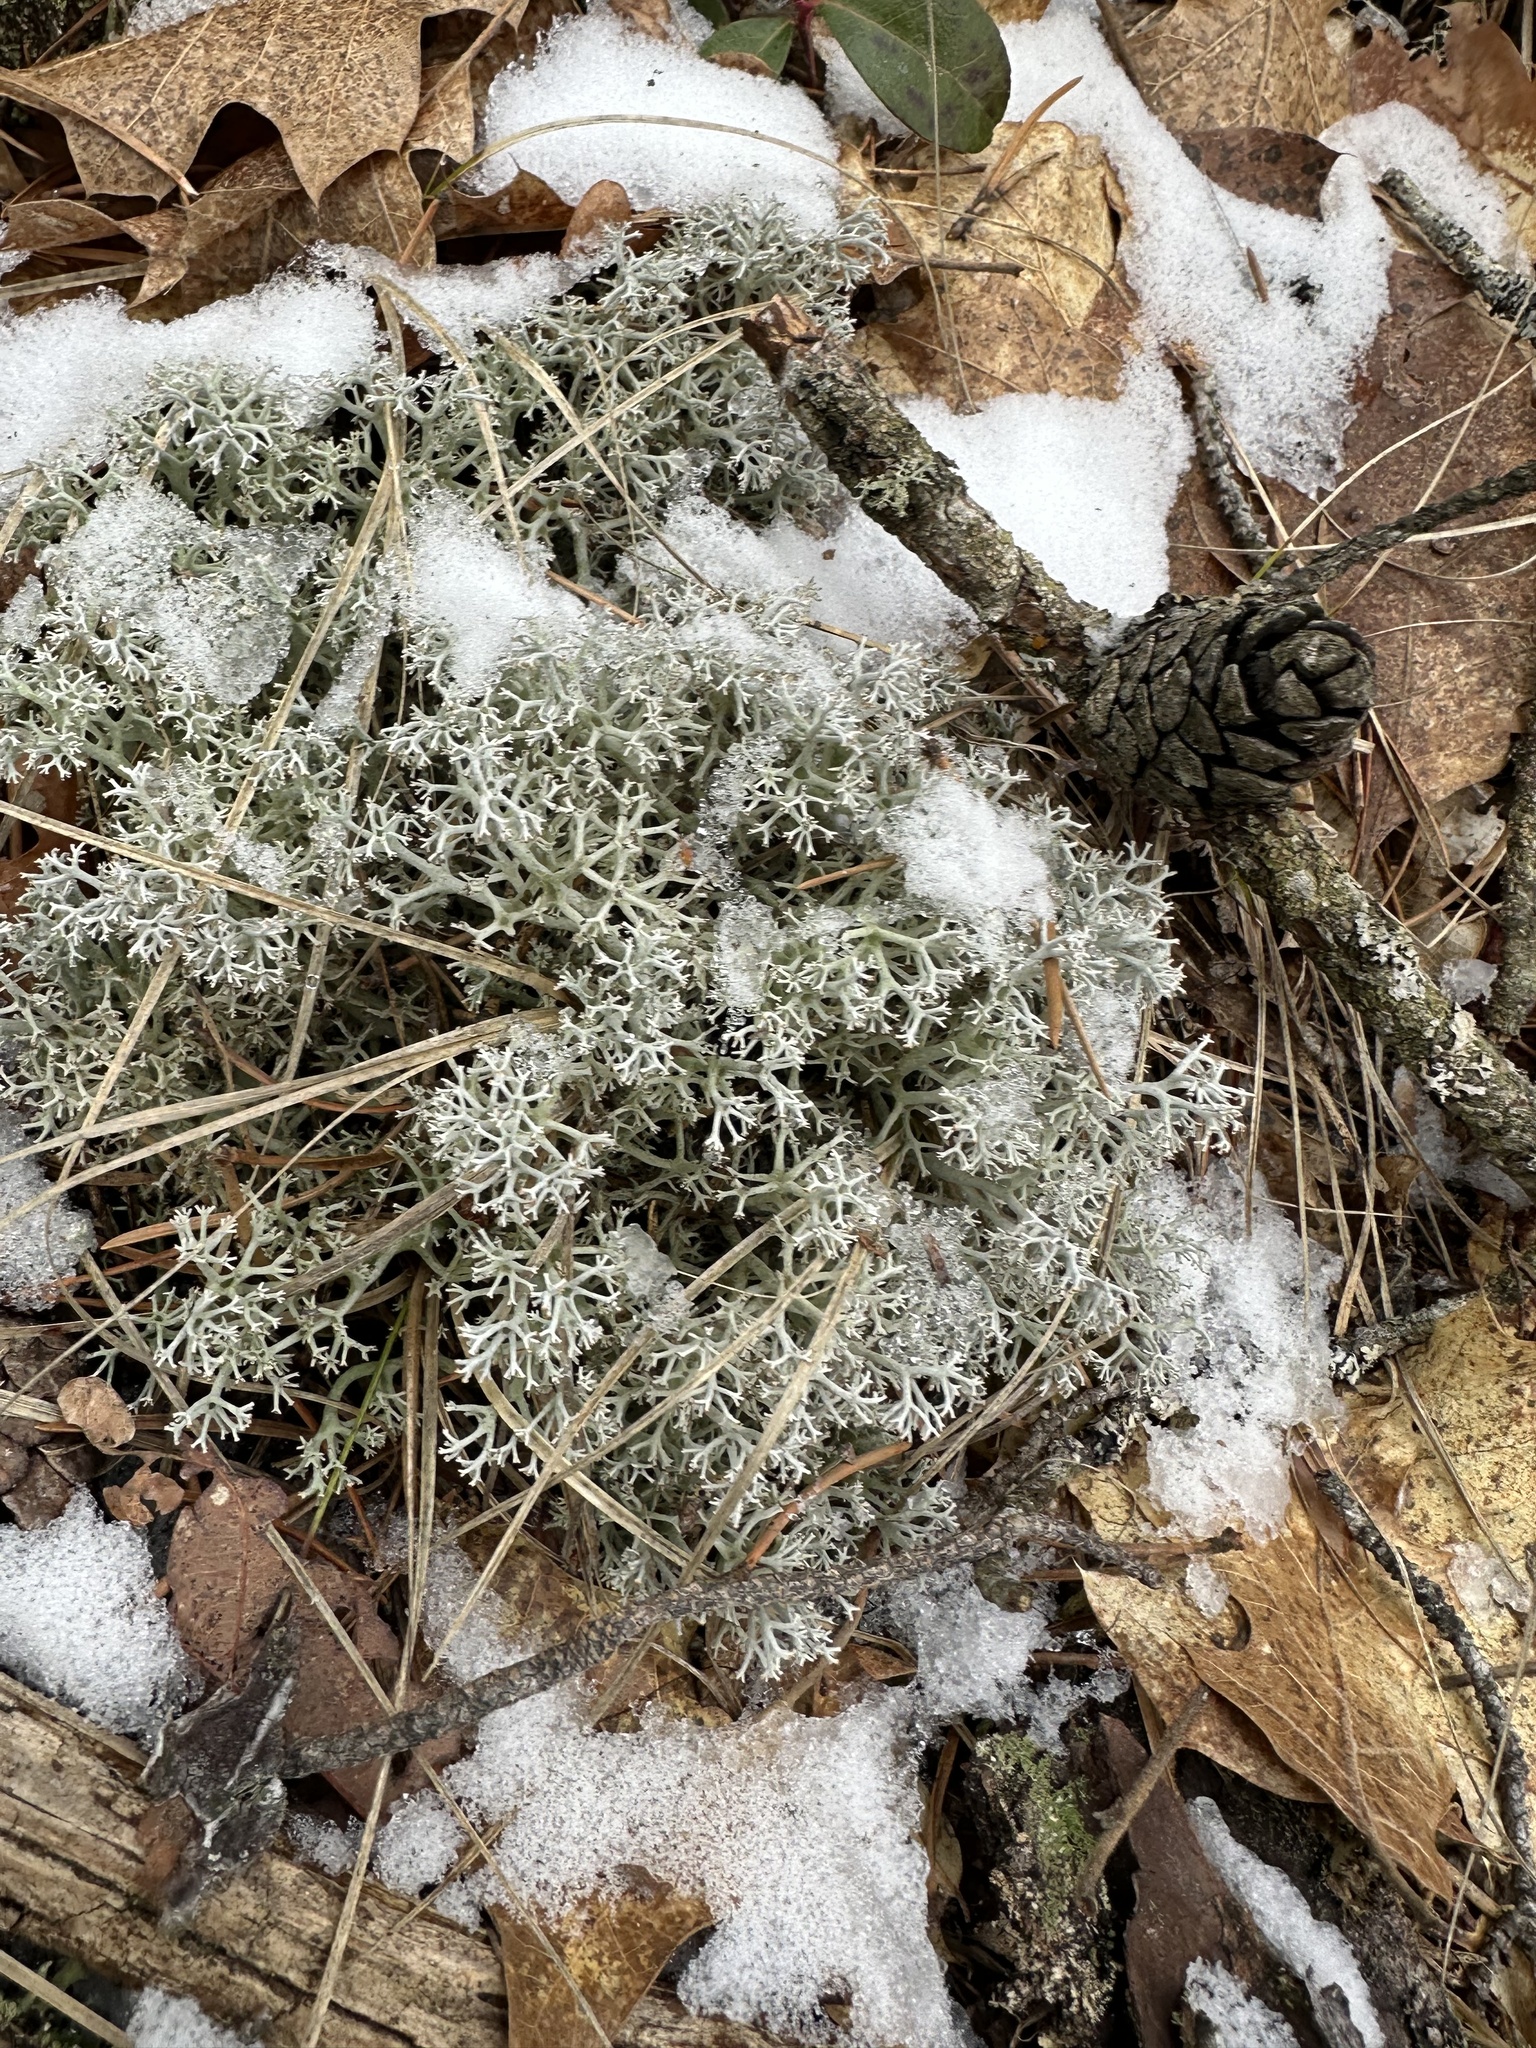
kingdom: Fungi
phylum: Ascomycota
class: Lecanoromycetes
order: Lecanorales
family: Cladoniaceae
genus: Cladonia
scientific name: Cladonia rangiferina
